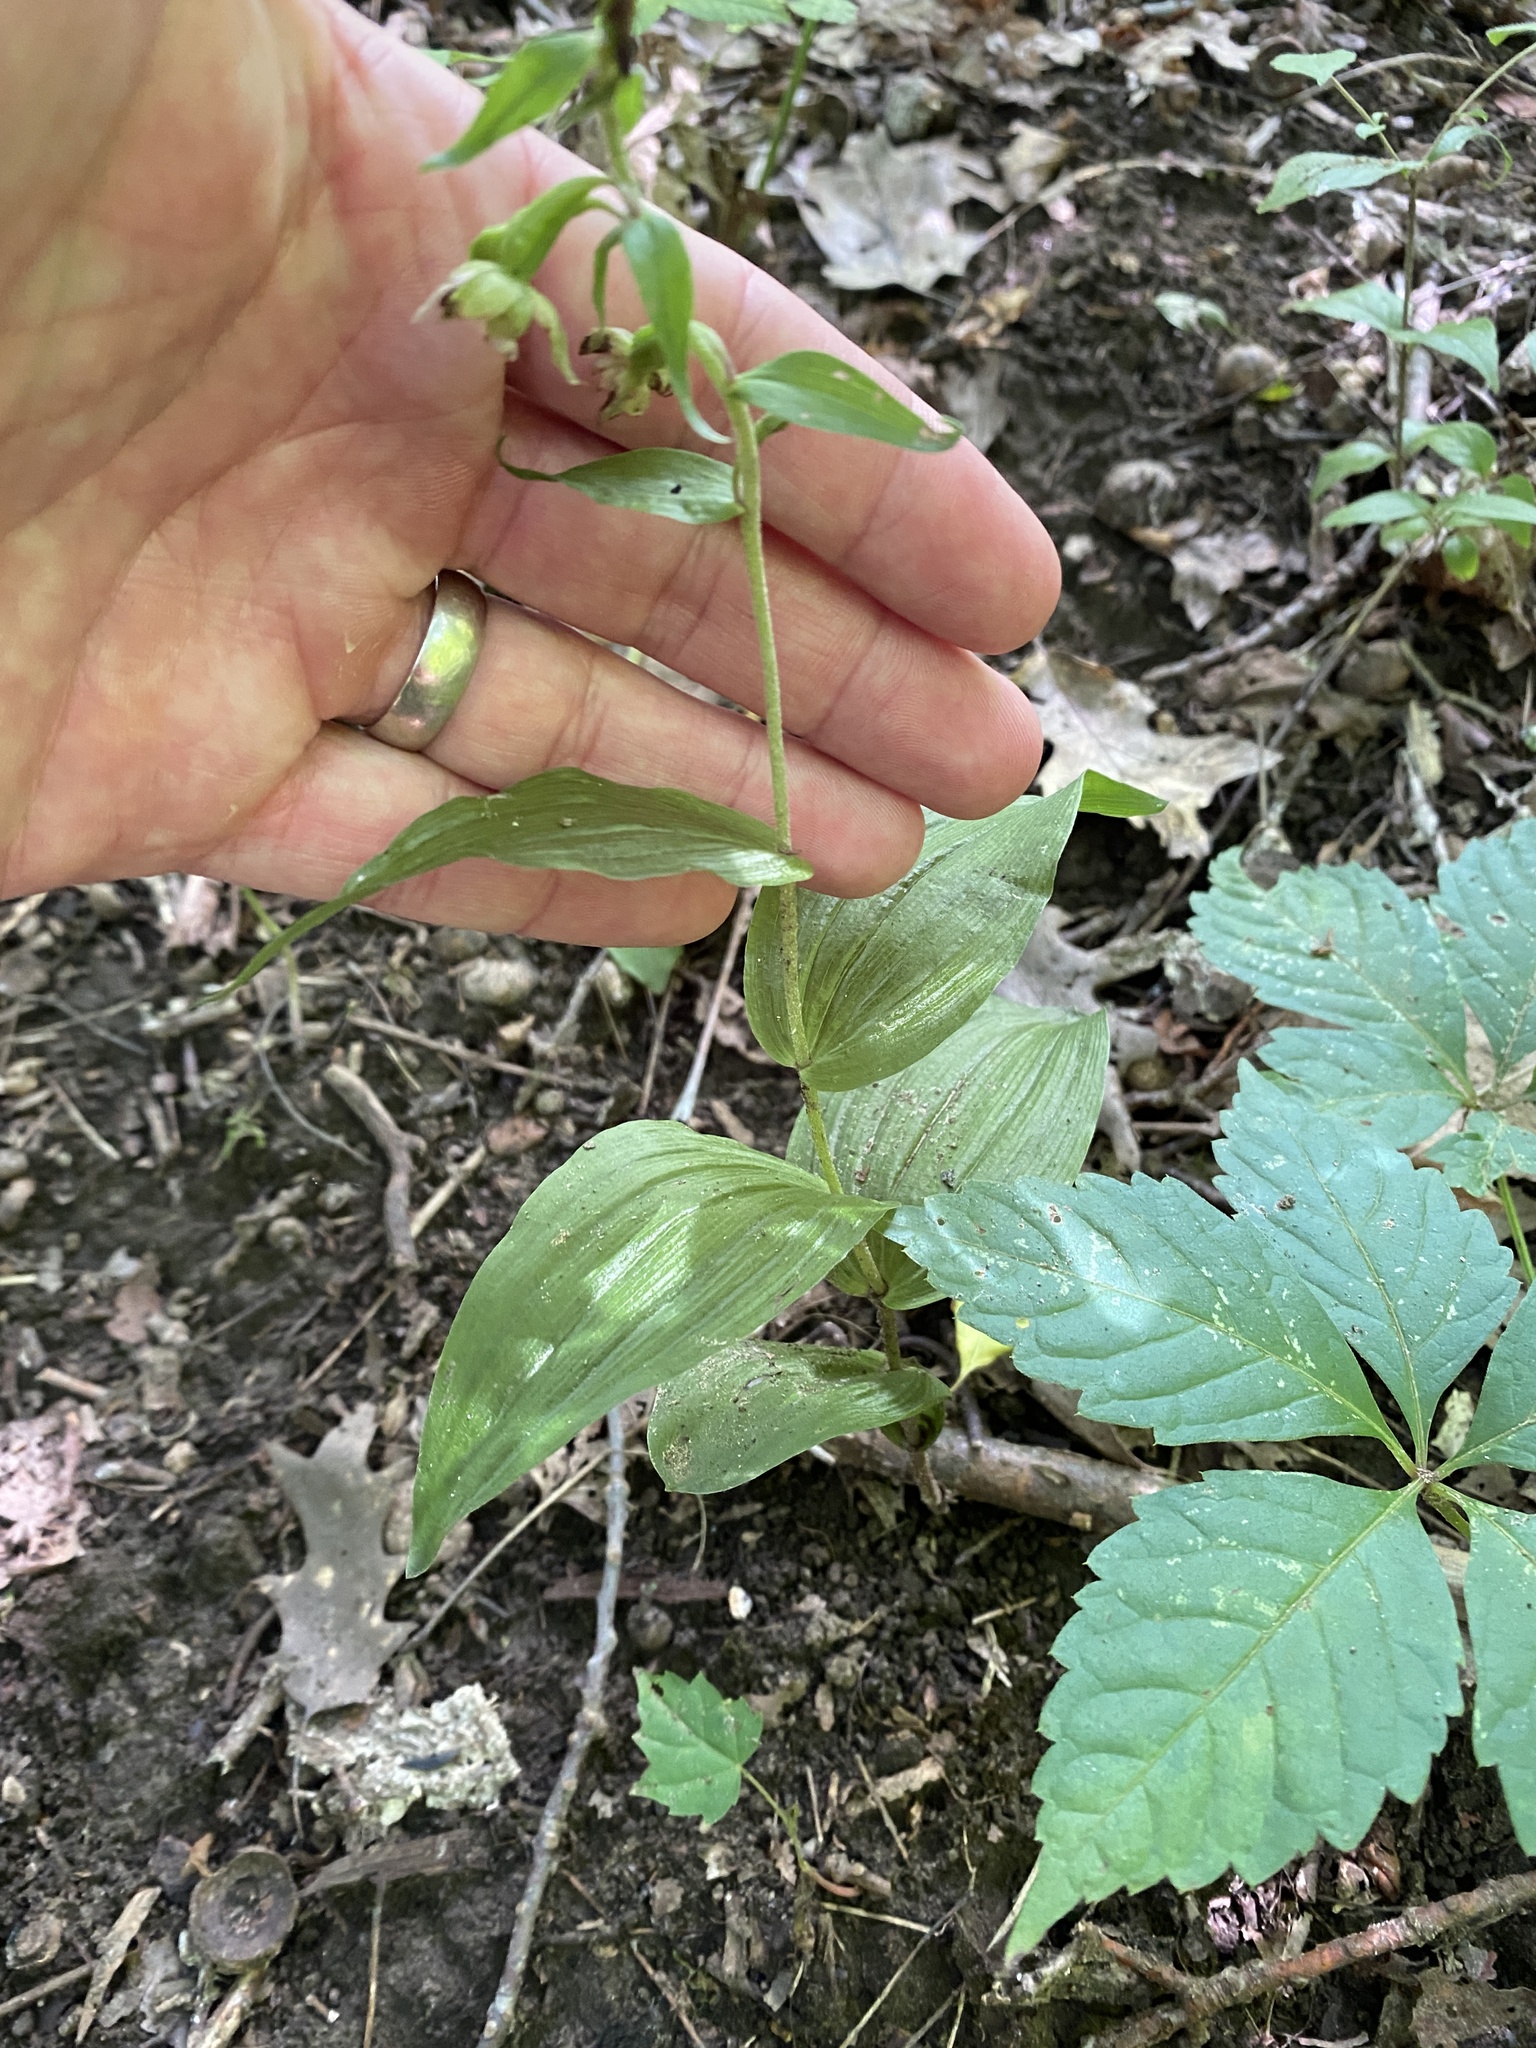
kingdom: Plantae
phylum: Tracheophyta
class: Liliopsida
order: Asparagales
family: Orchidaceae
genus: Epipactis
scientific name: Epipactis helleborine
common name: Broad-leaved helleborine
